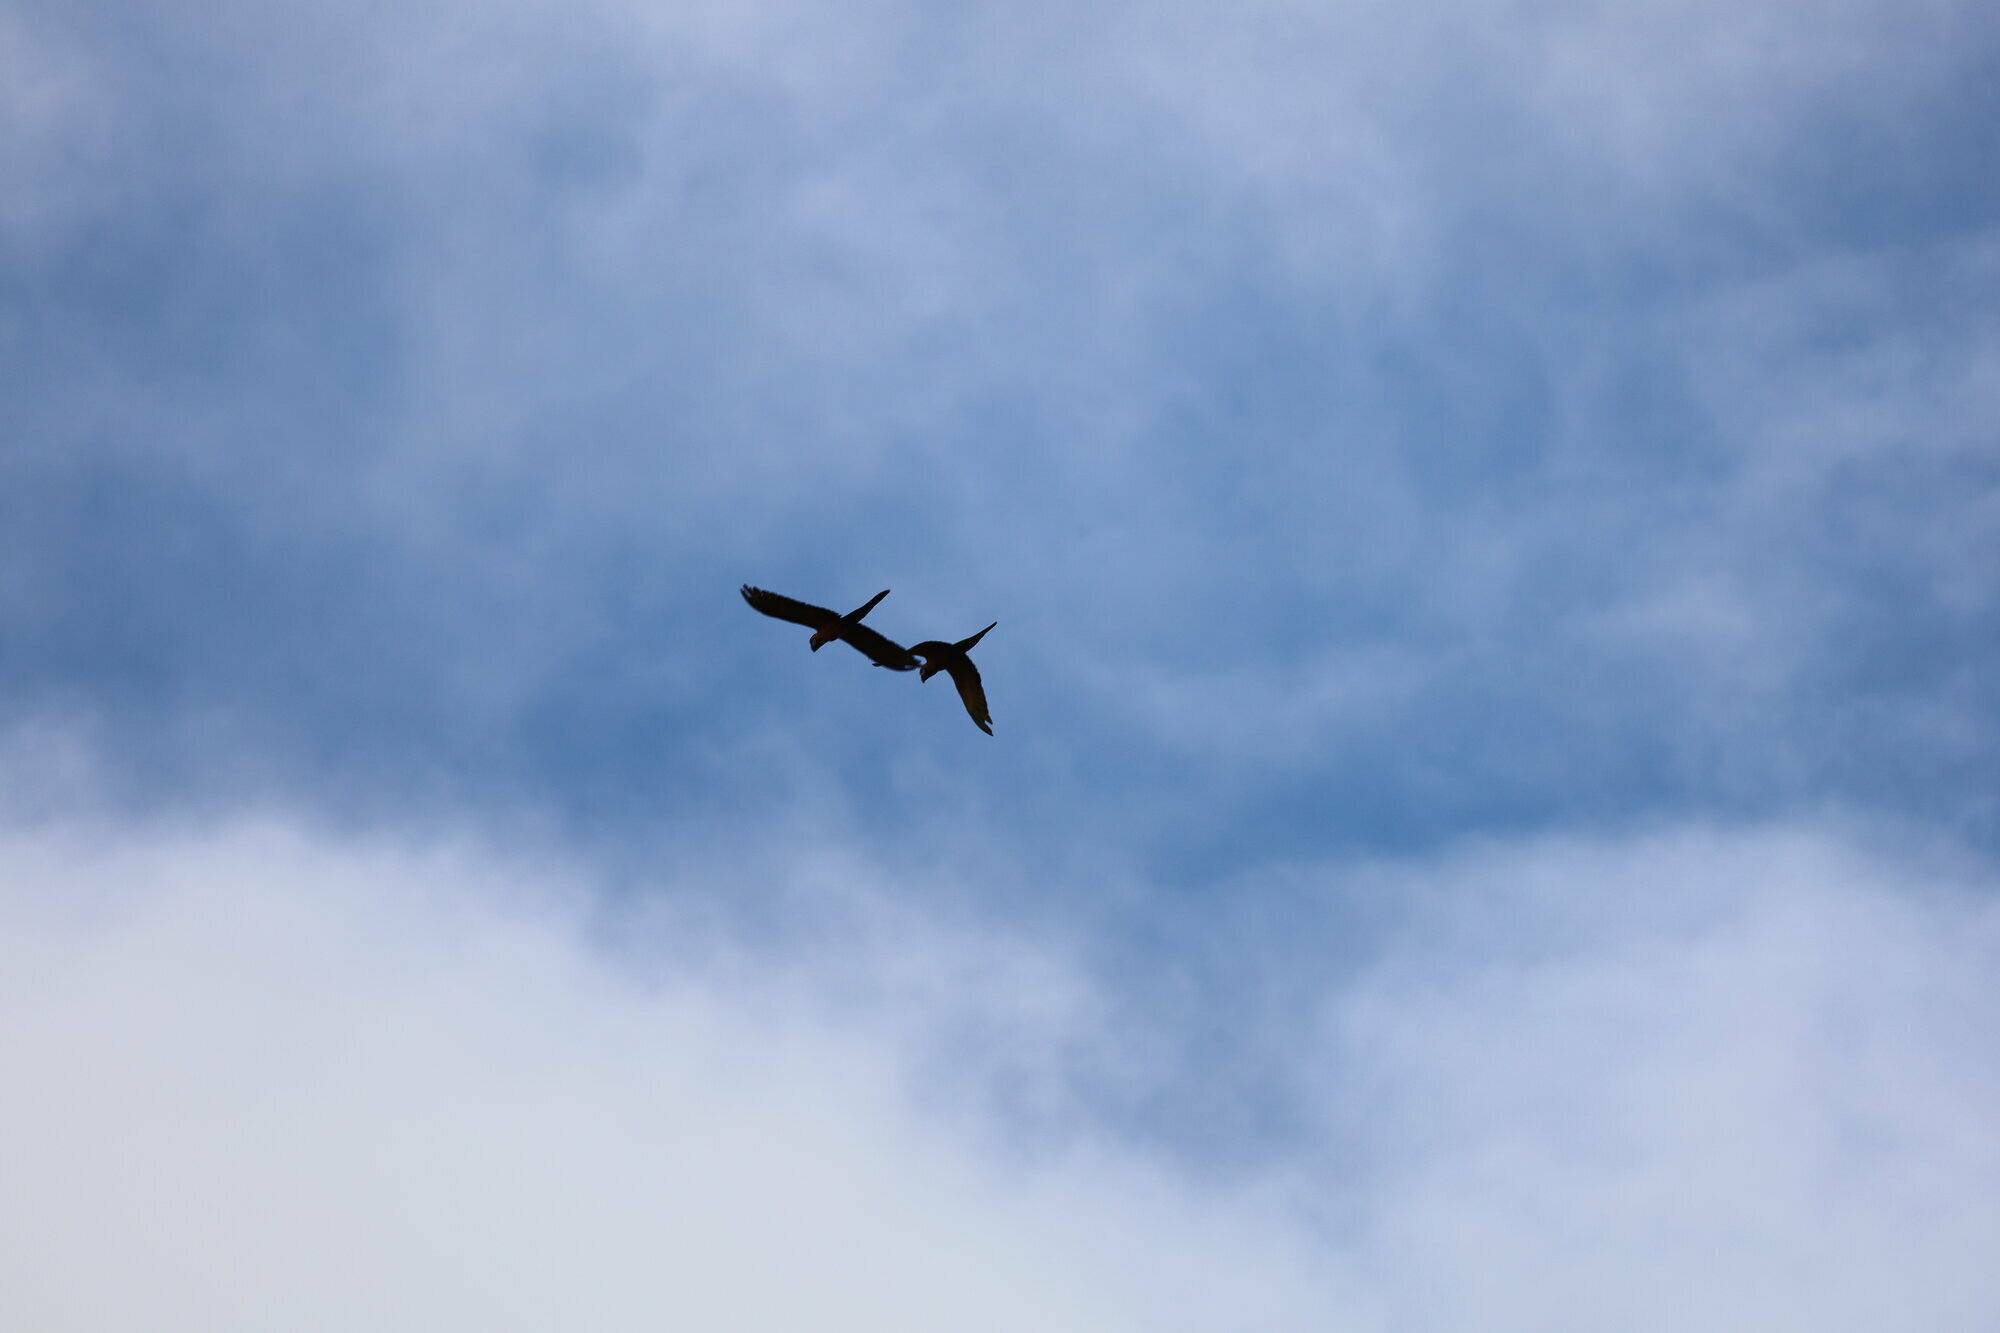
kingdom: Animalia
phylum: Chordata
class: Aves
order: Psittaciformes
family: Psittacidae
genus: Ara
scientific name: Ara ararauna
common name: Blue-and-yellow macaw
